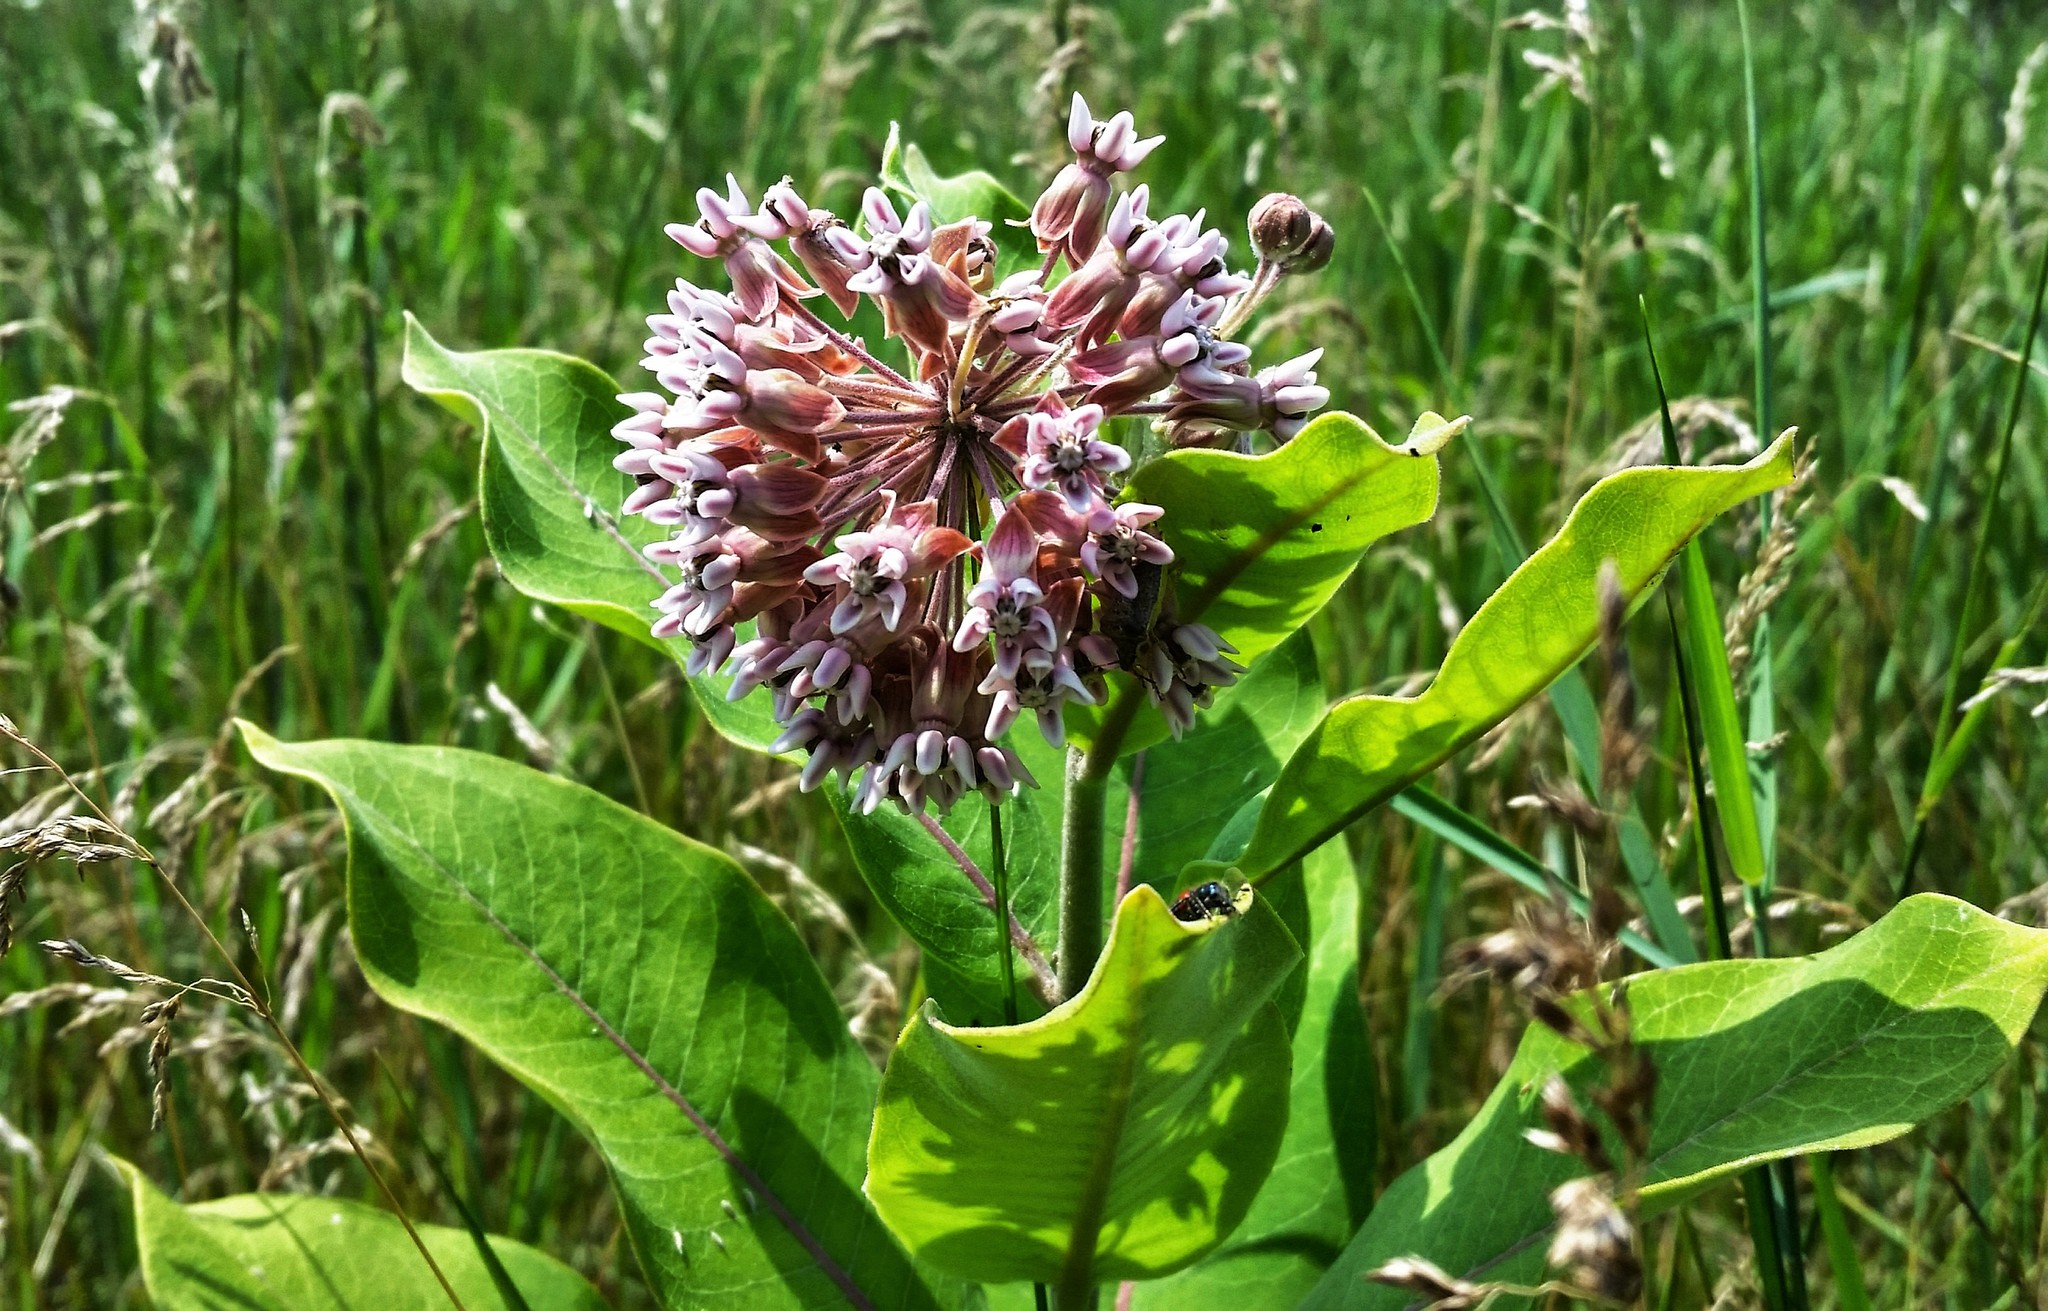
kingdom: Plantae
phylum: Tracheophyta
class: Magnoliopsida
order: Gentianales
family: Apocynaceae
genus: Asclepias
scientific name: Asclepias syriaca
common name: Common milkweed
